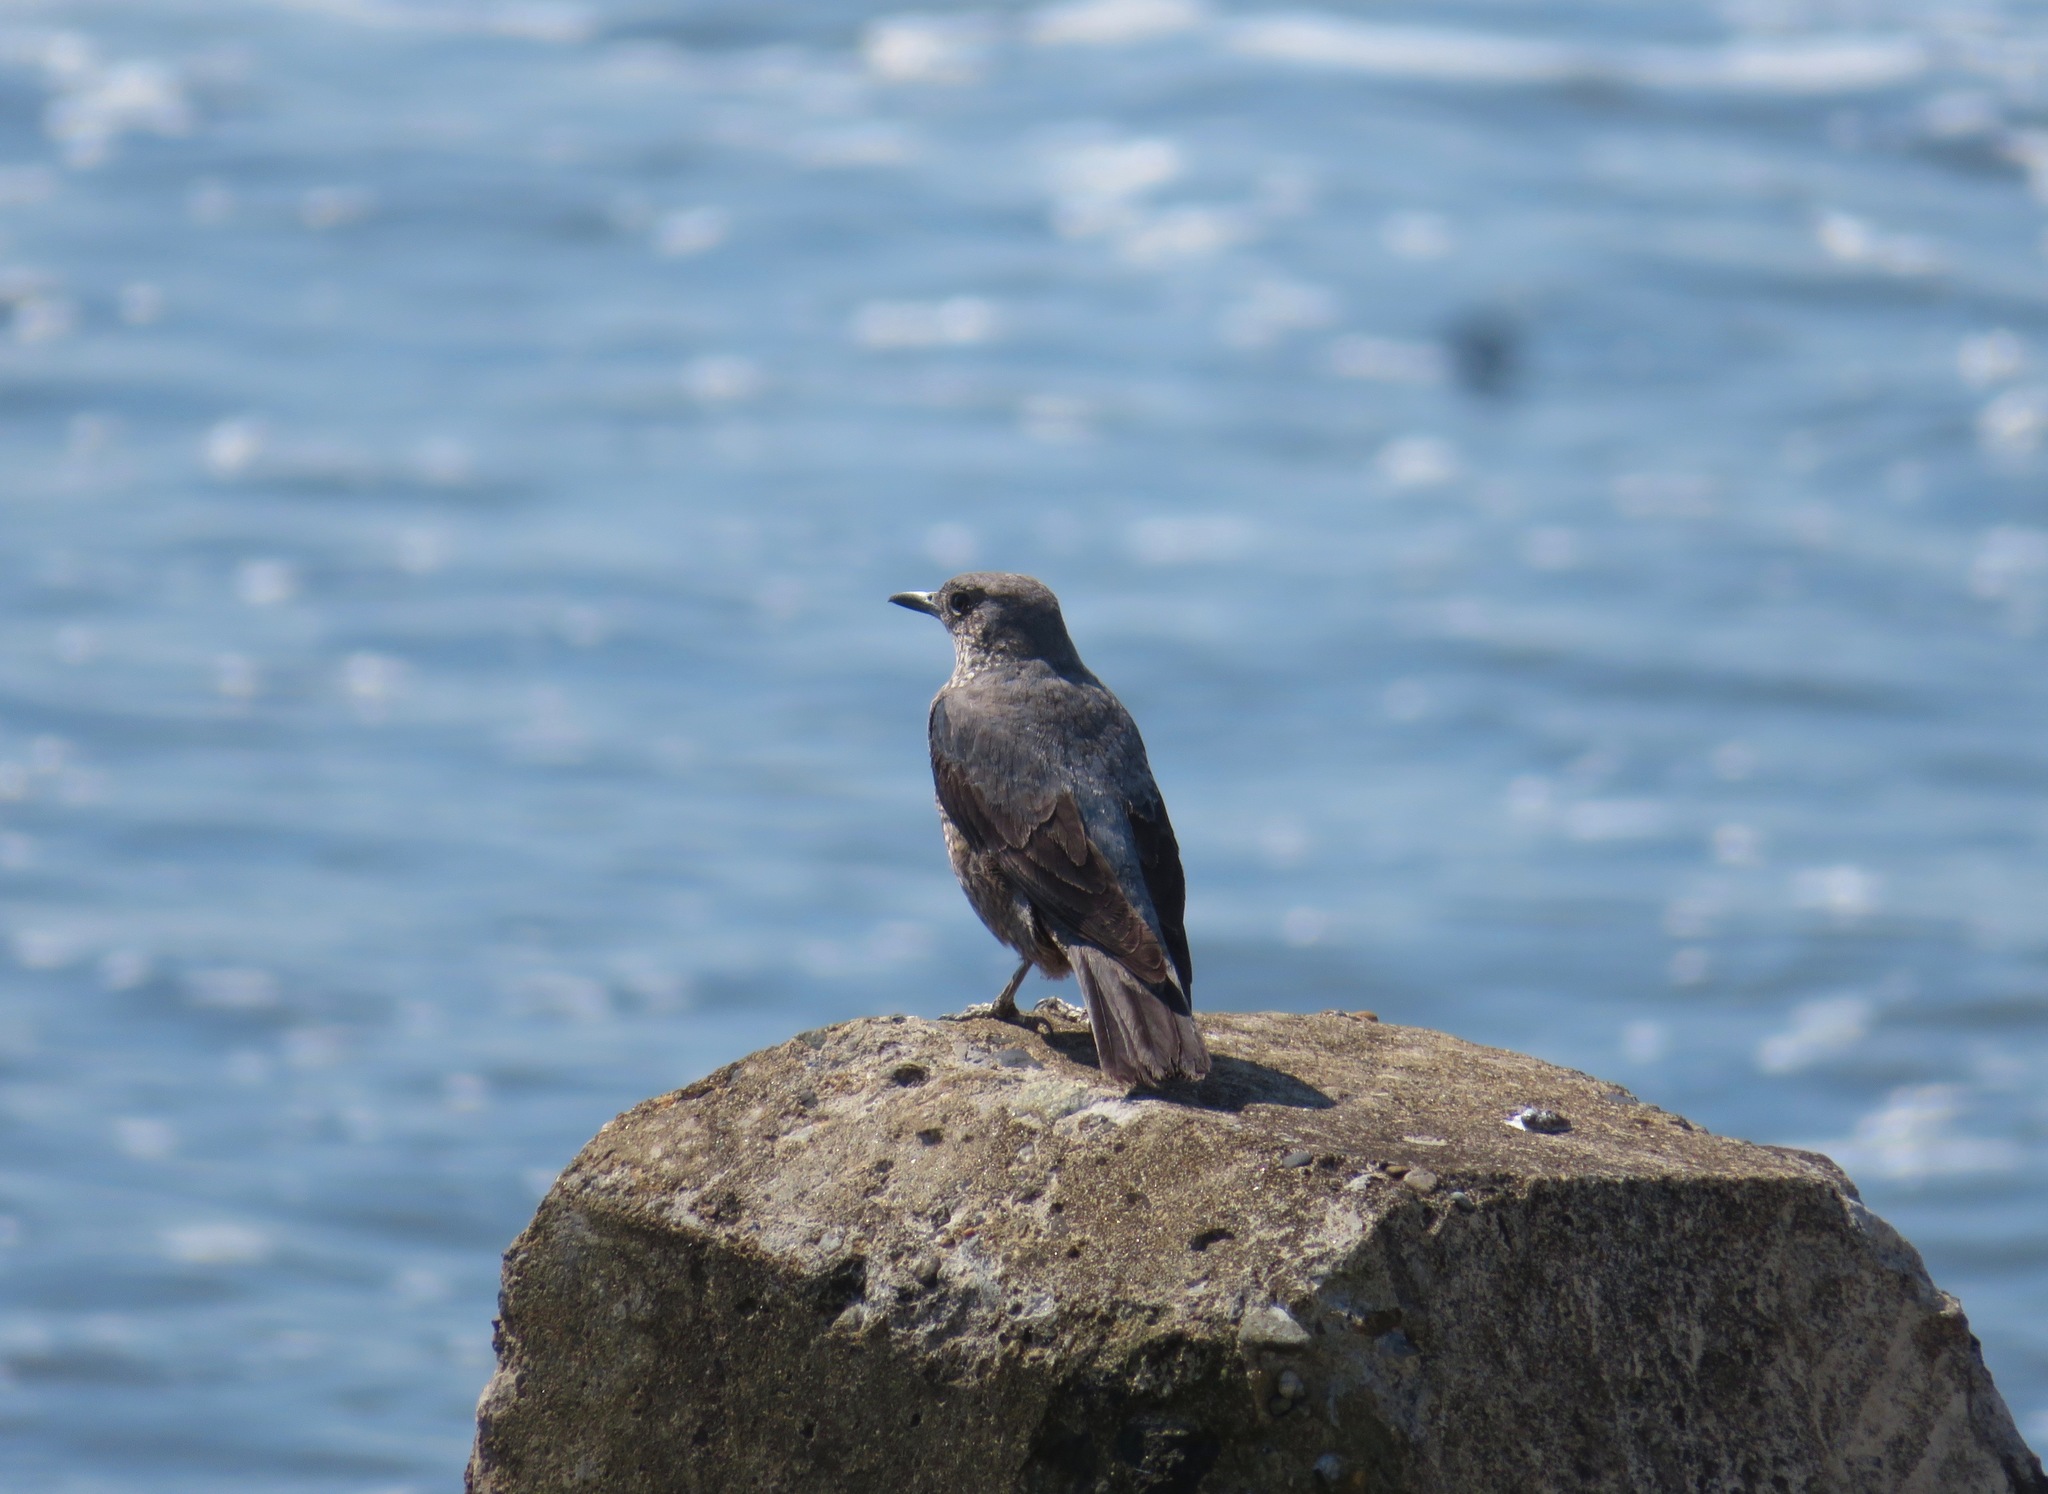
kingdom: Animalia
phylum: Chordata
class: Aves
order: Passeriformes
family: Muscicapidae
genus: Monticola
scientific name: Monticola solitarius
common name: Blue rock thrush
